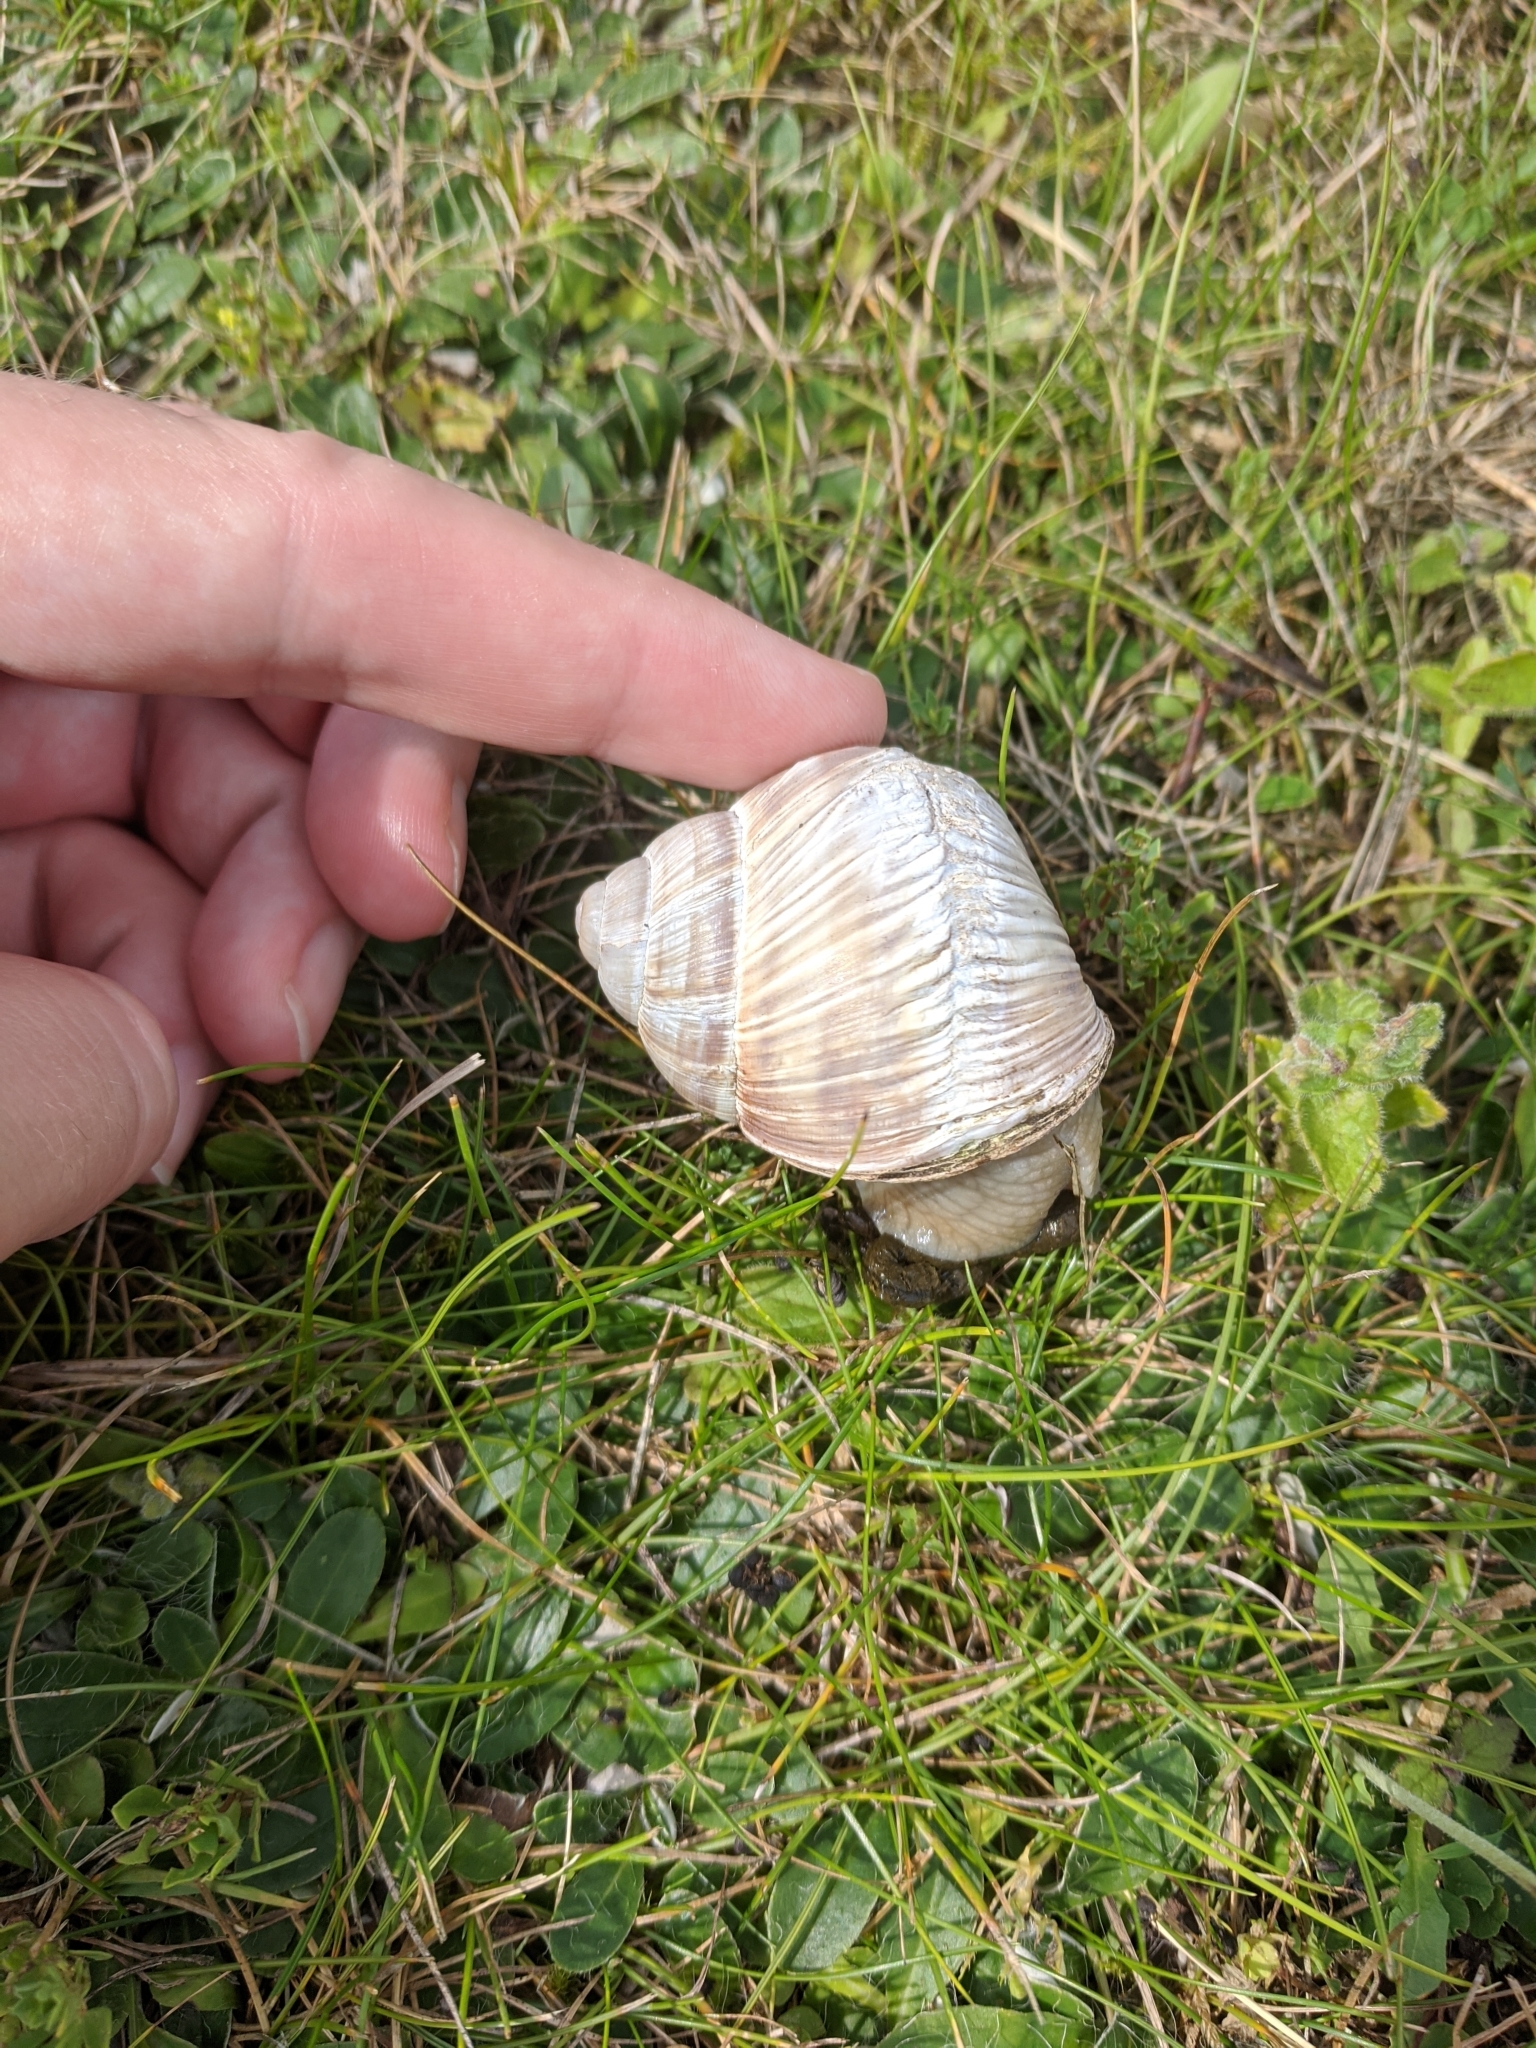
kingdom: Animalia
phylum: Mollusca
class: Gastropoda
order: Stylommatophora
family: Helicidae
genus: Helix
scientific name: Helix pomatia
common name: Roman snail
